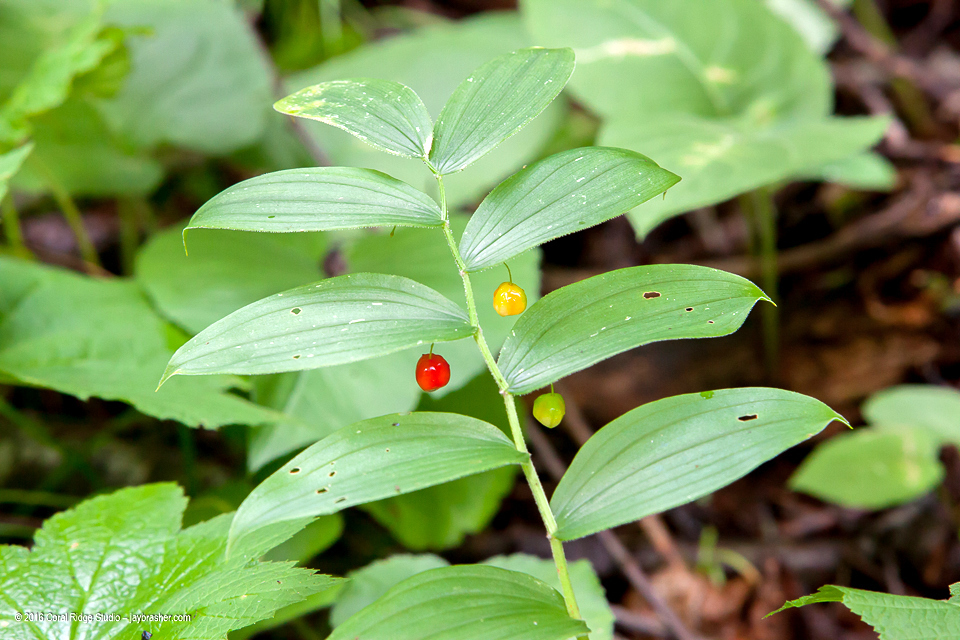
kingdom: Plantae
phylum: Tracheophyta
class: Liliopsida
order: Liliales
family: Liliaceae
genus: Streptopus
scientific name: Streptopus lanceolatus
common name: Rose mandarin
